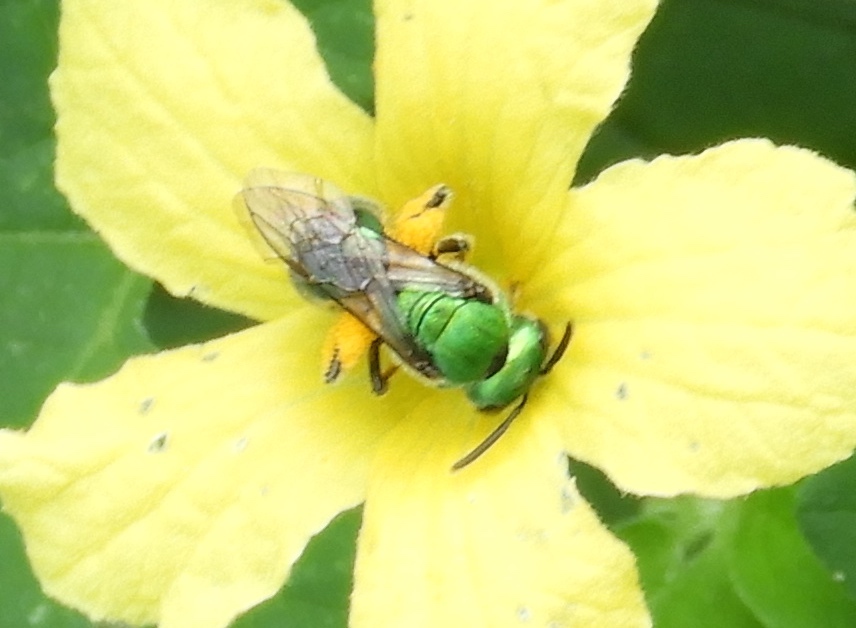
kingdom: Animalia
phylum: Arthropoda
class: Insecta
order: Hymenoptera
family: Halictidae
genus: Augochlora
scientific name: Augochlora
